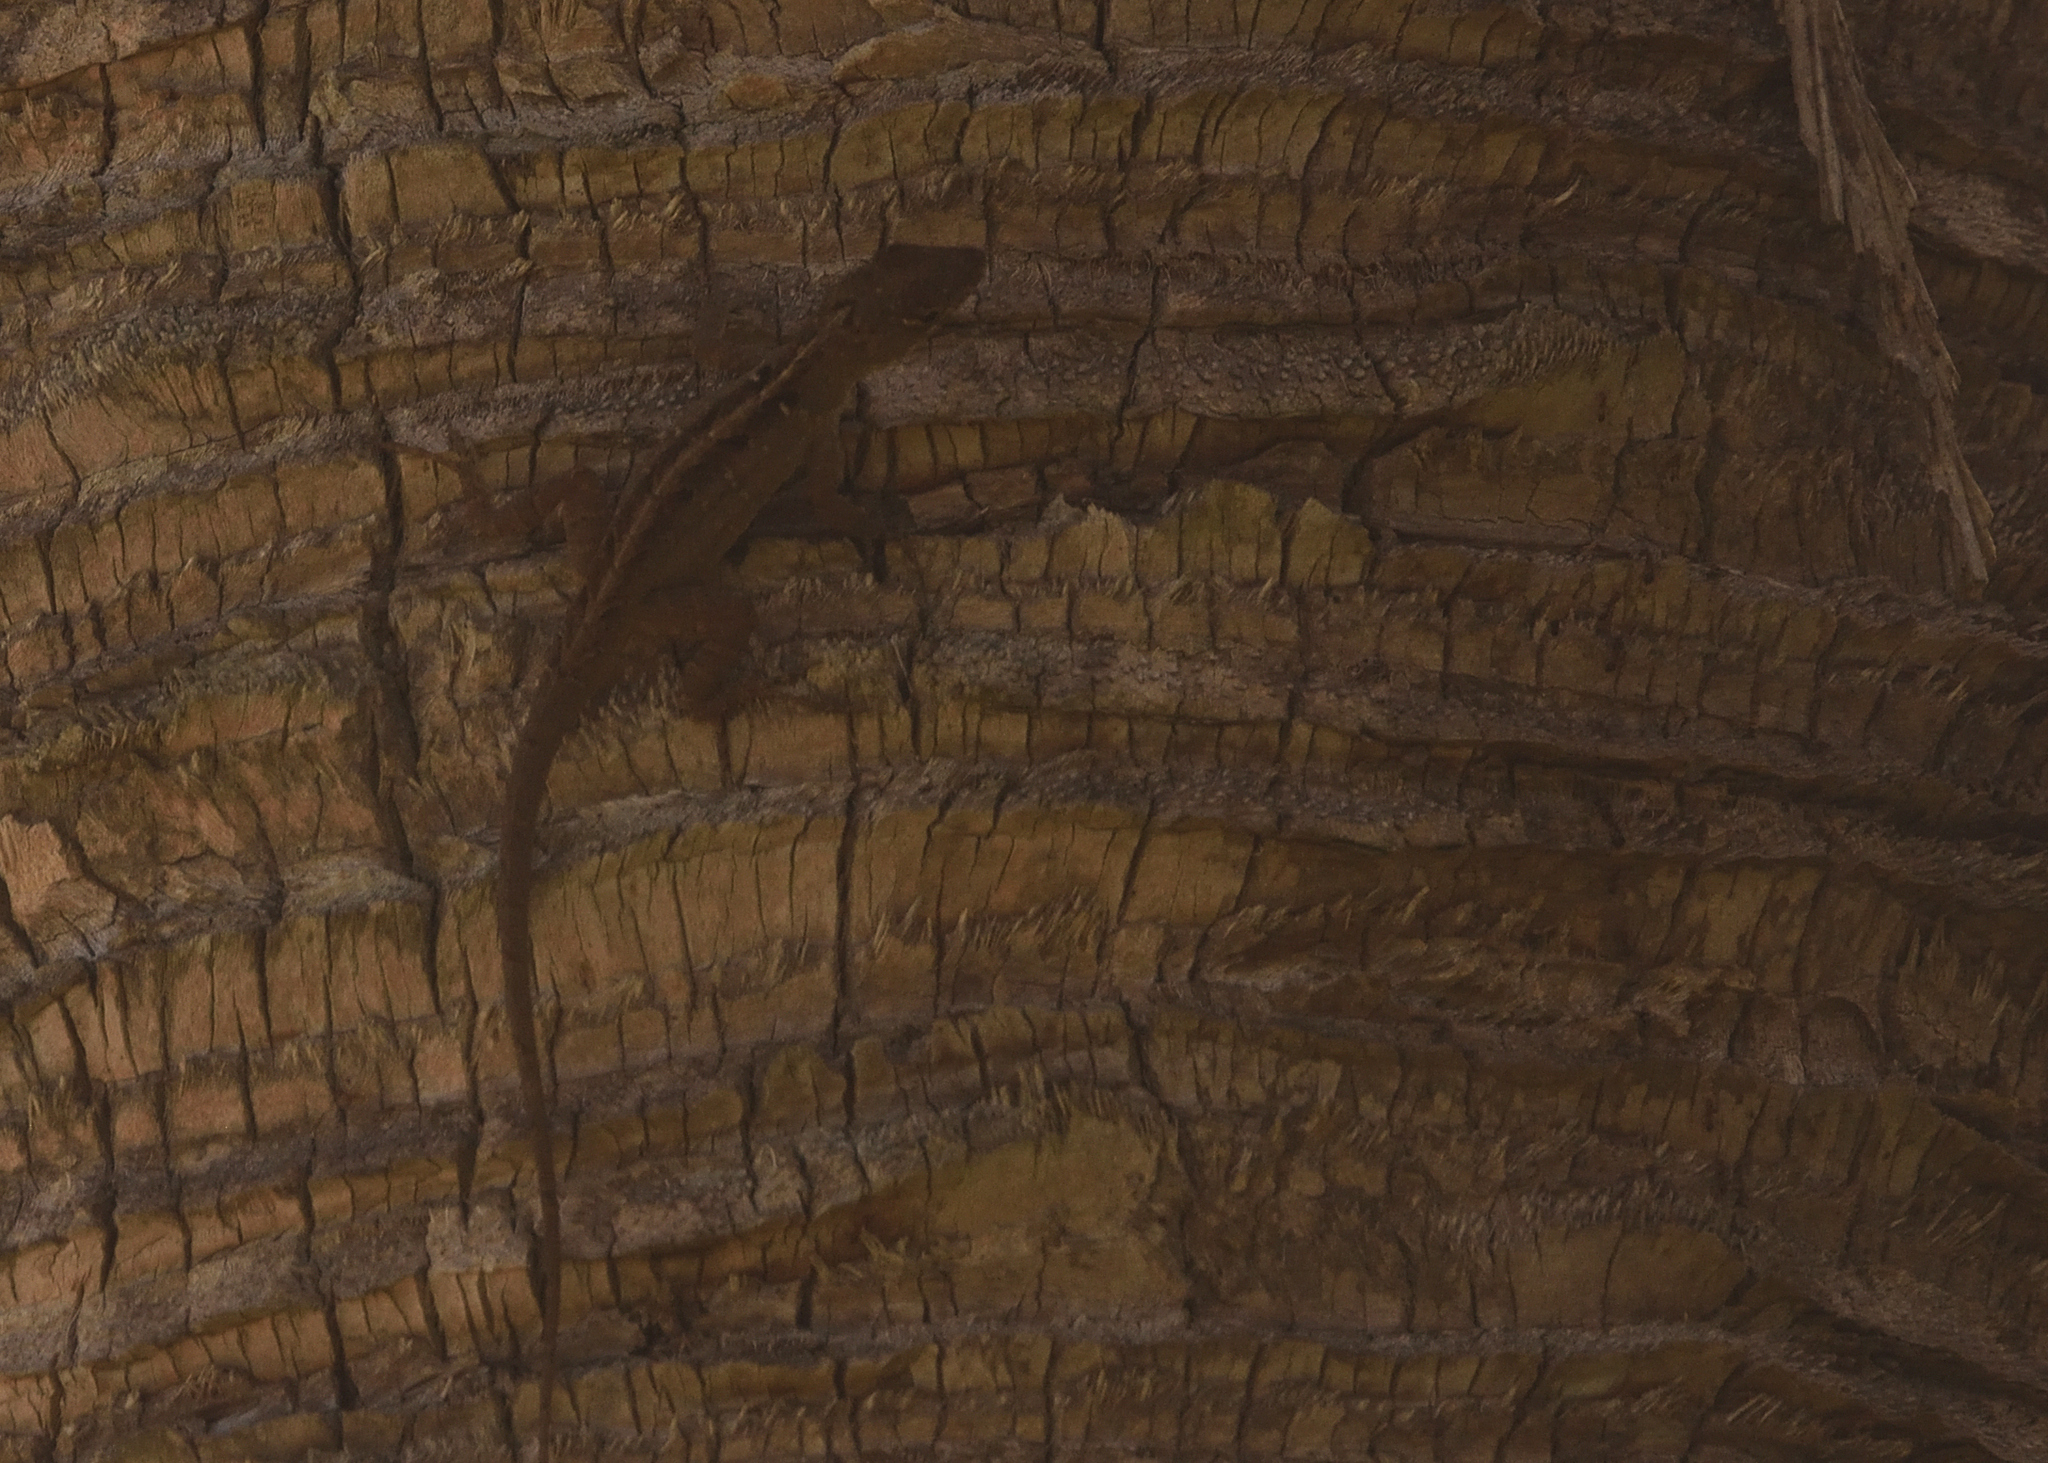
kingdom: Animalia
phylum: Chordata
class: Squamata
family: Dactyloidae
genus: Anolis
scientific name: Anolis sagrei
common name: Brown anole
